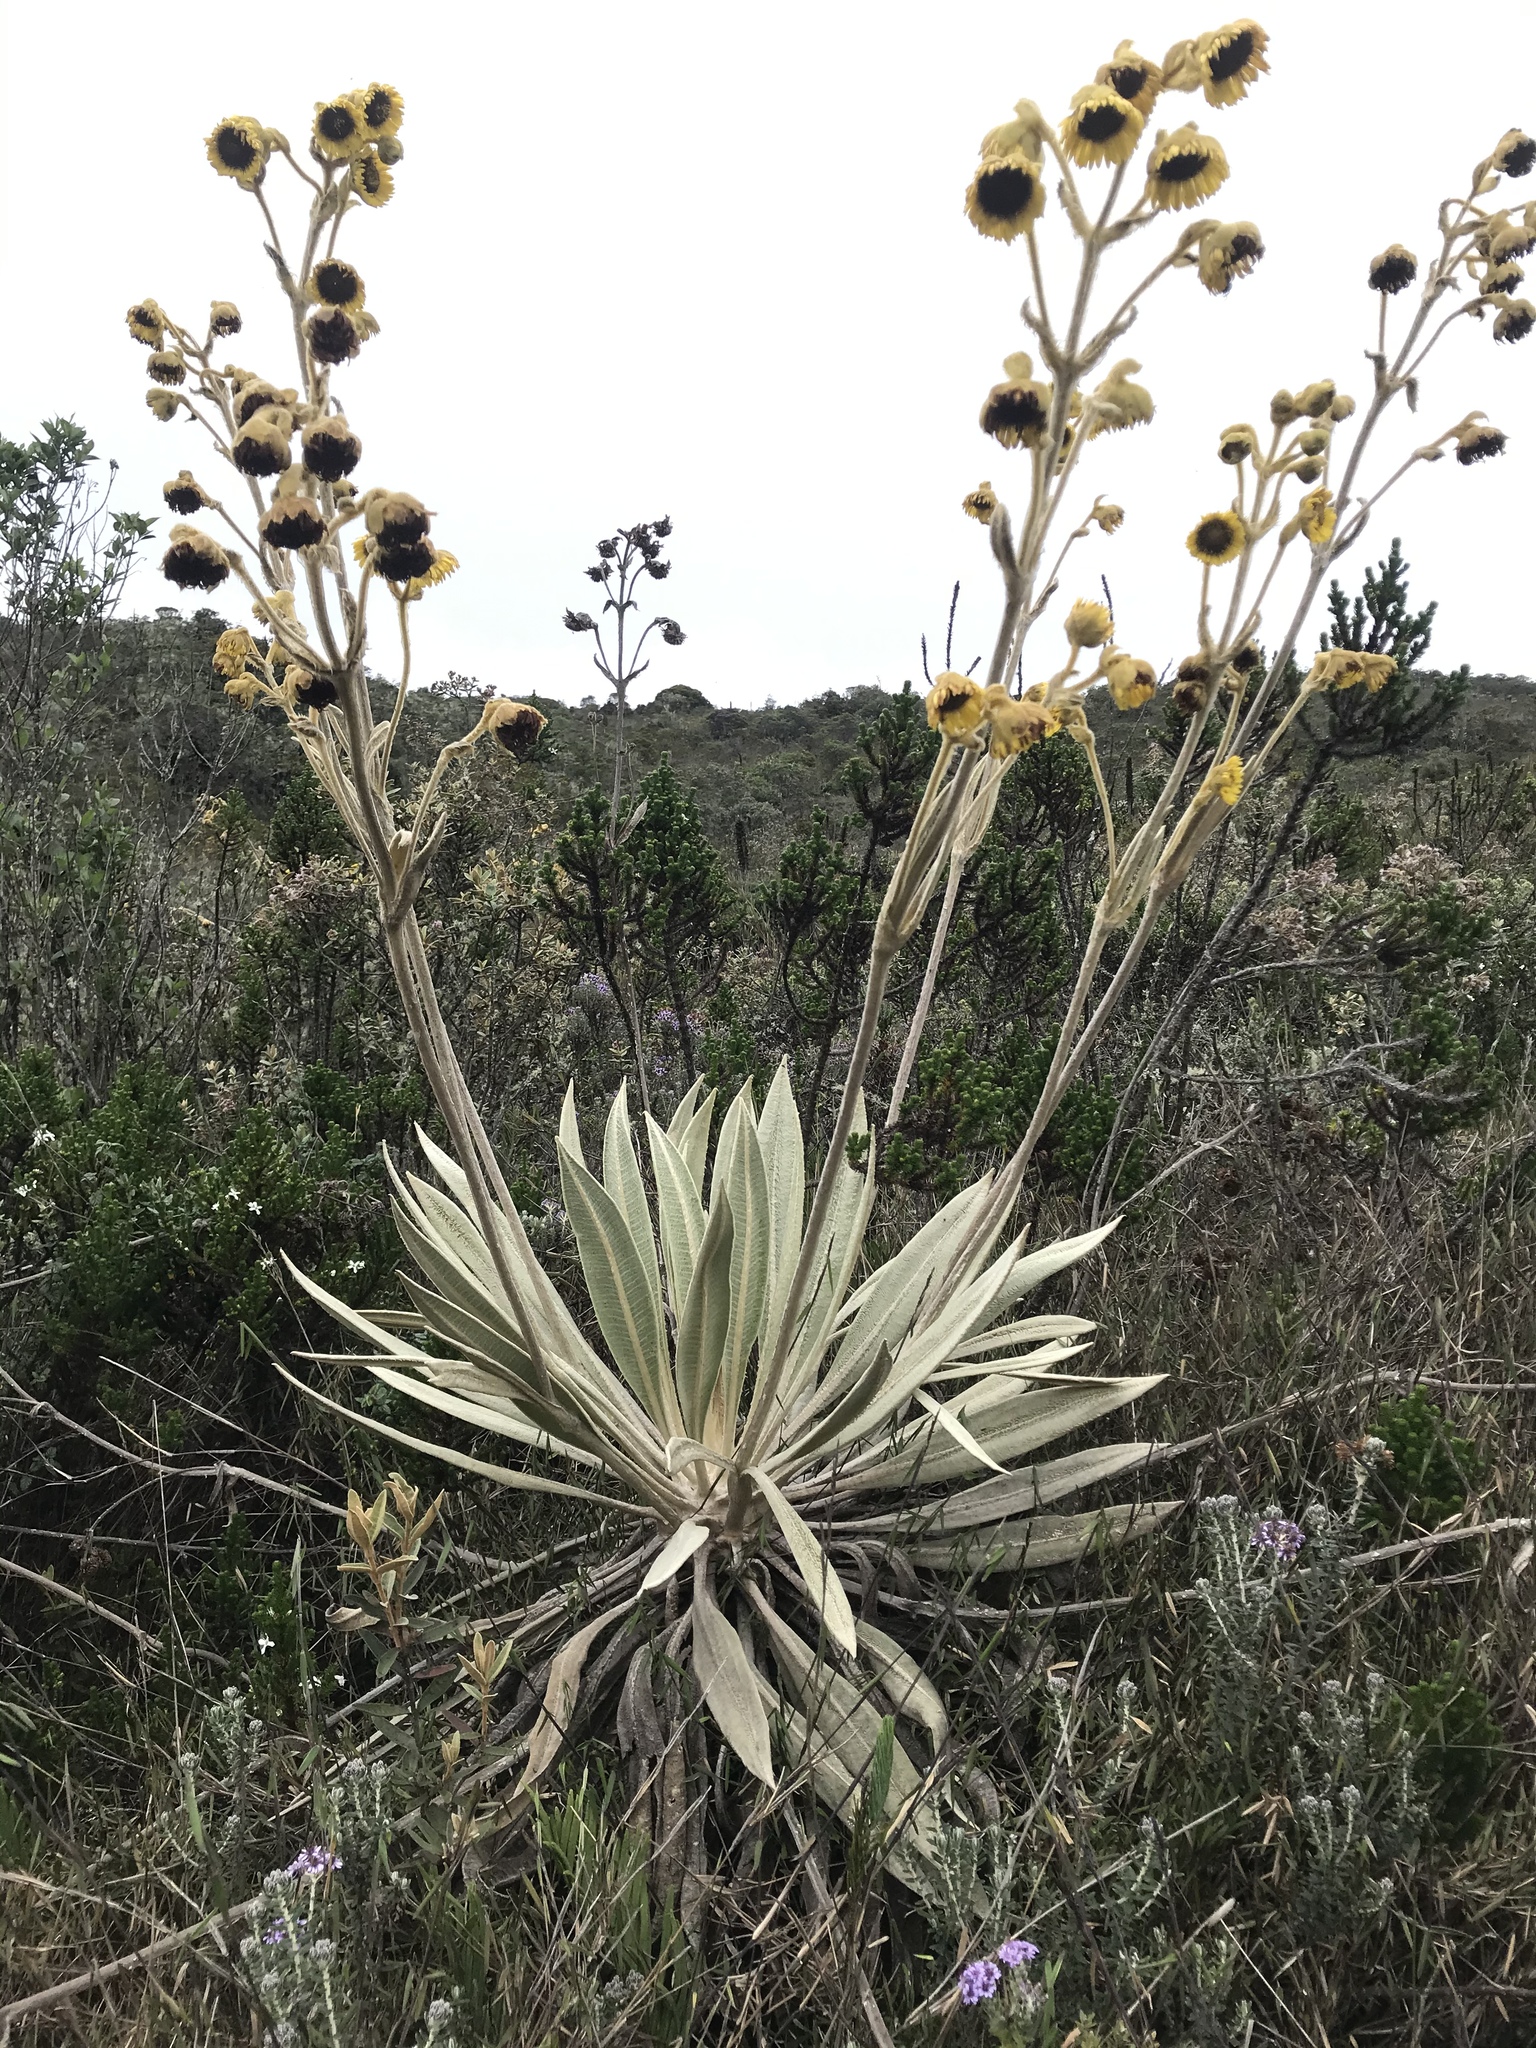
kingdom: Plantae
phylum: Tracheophyta
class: Magnoliopsida
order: Asterales
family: Asteraceae
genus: Espeletia
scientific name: Espeletia grandiflora
